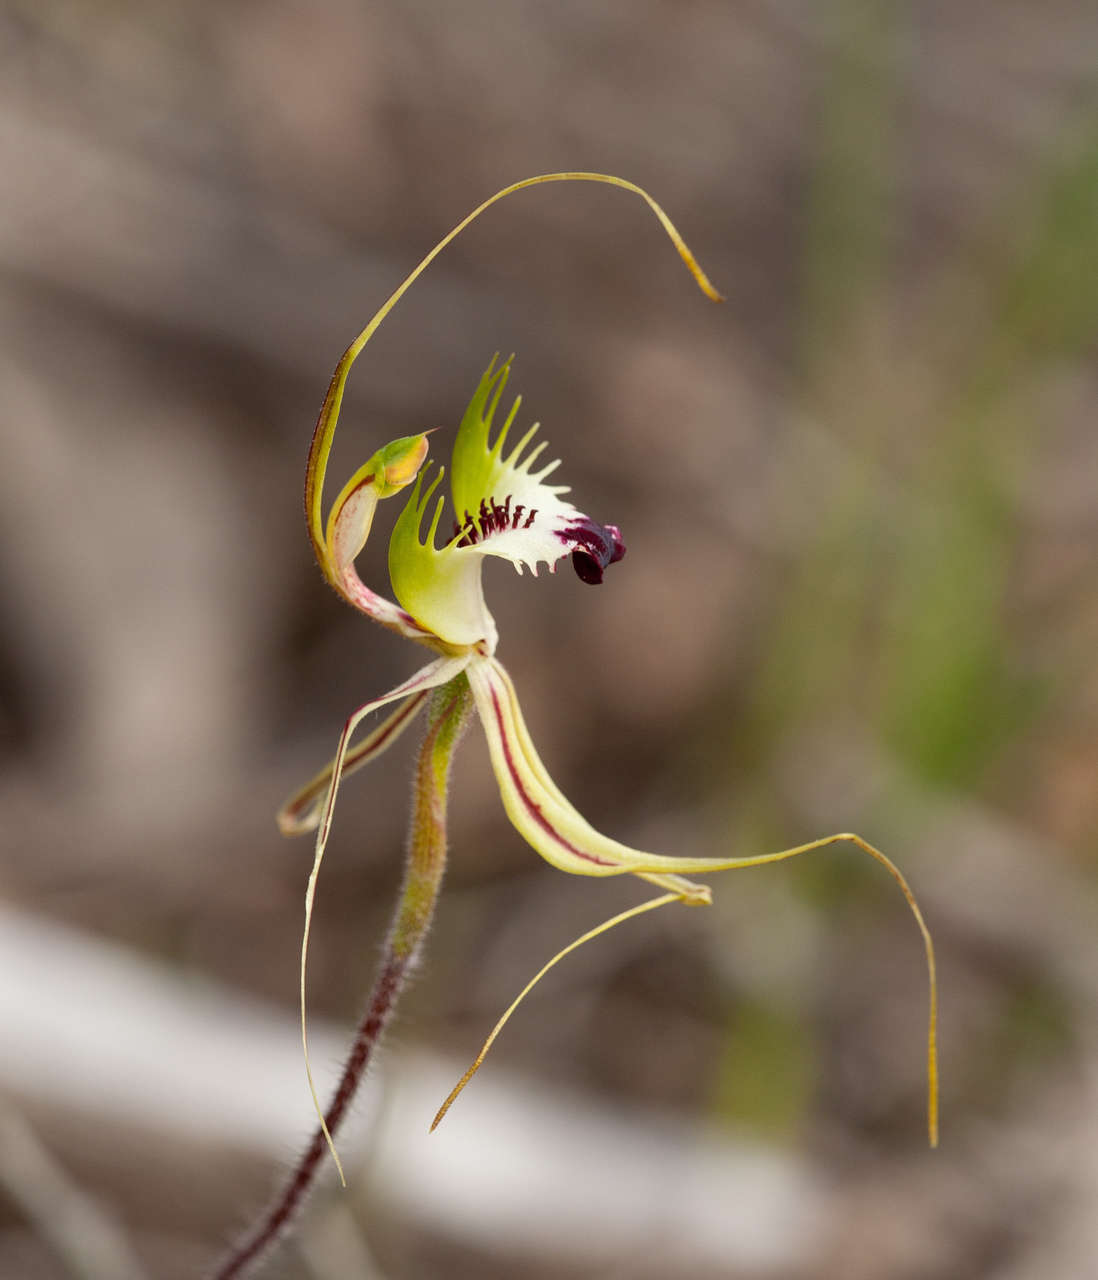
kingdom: Plantae
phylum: Tracheophyta
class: Liliopsida
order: Asparagales
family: Orchidaceae
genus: Caladenia
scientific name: Caladenia tentaculata
